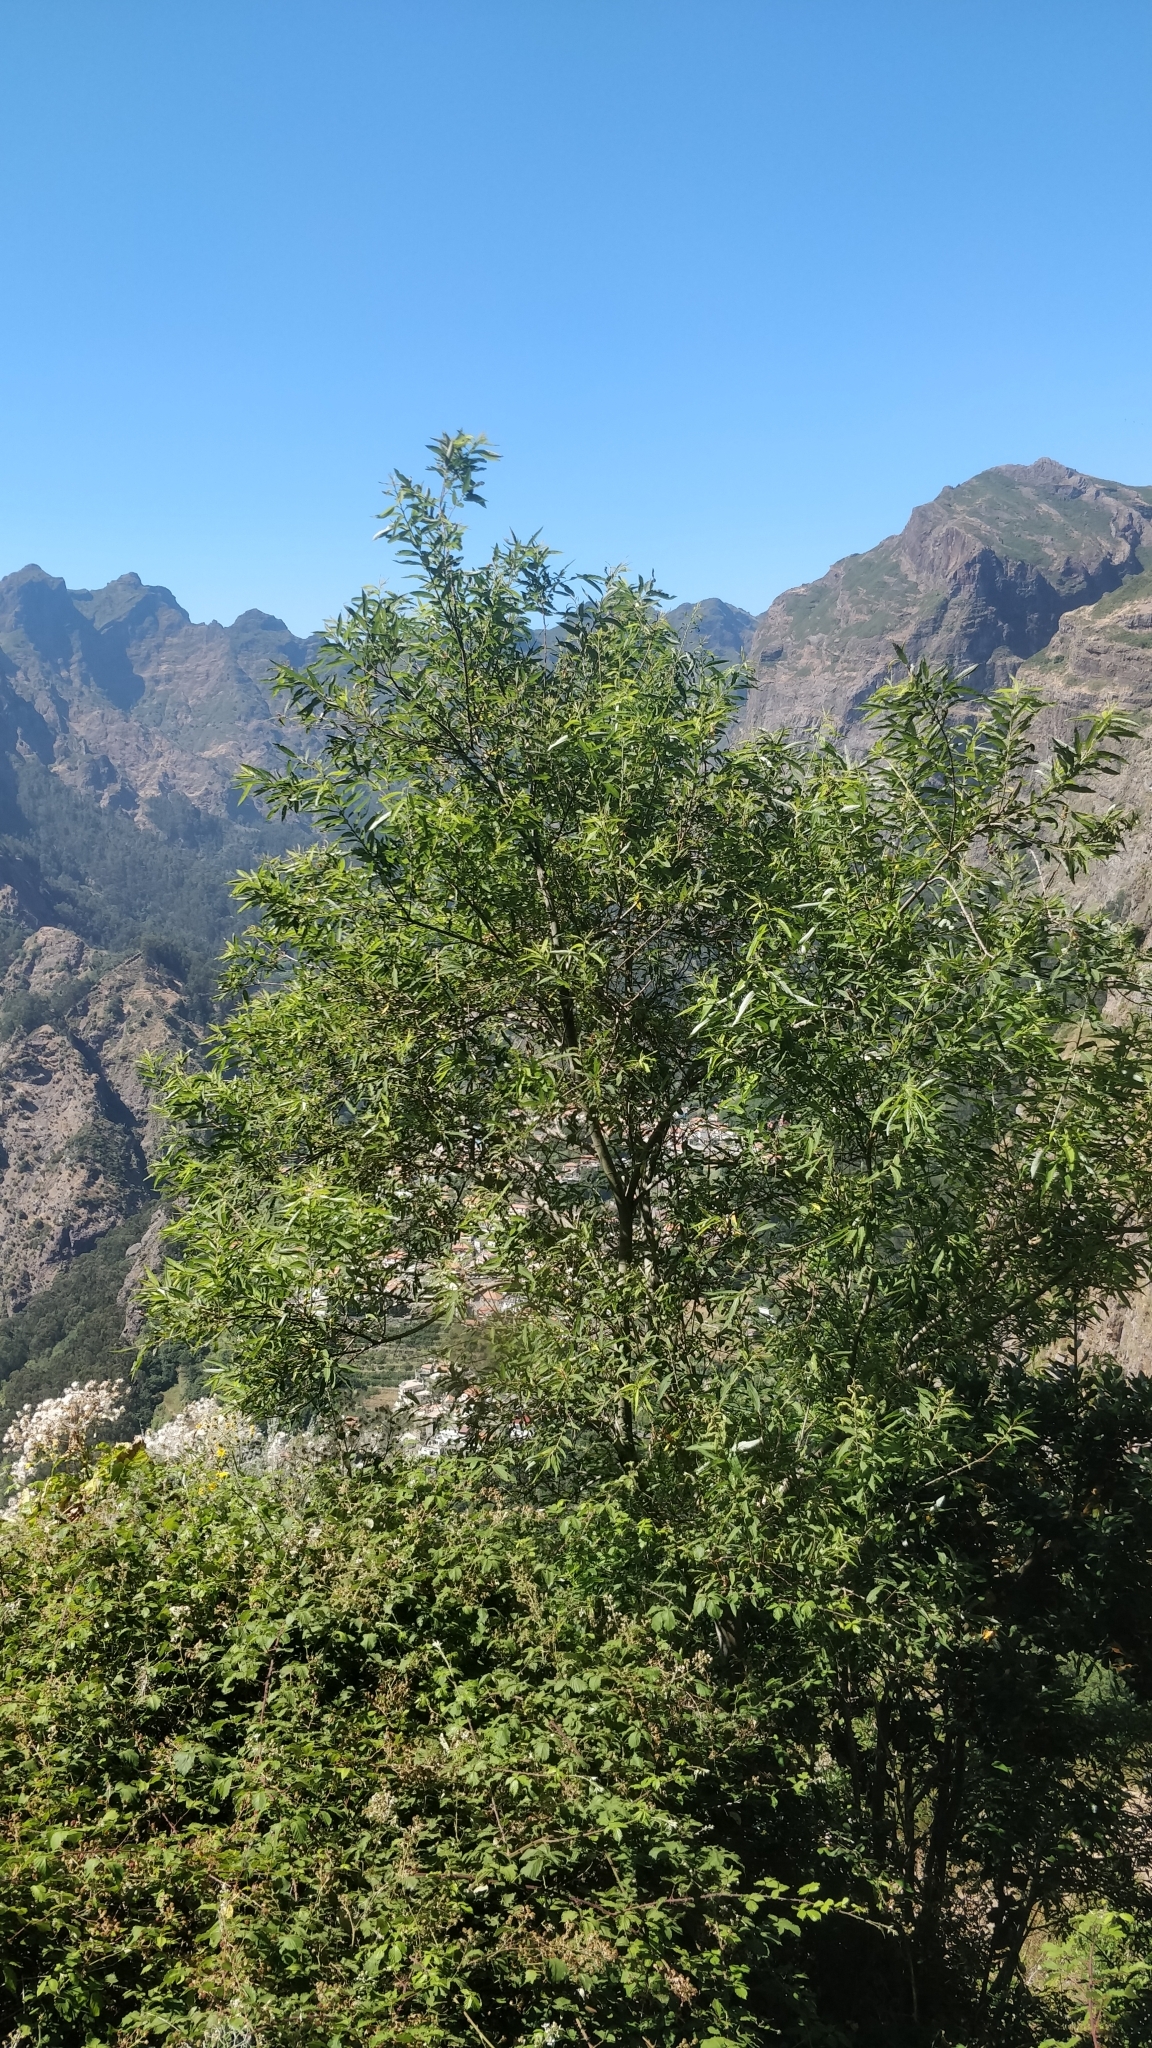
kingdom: Plantae
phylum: Tracheophyta
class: Magnoliopsida
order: Malpighiales
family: Salicaceae
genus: Salix
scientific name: Salix canariensis
